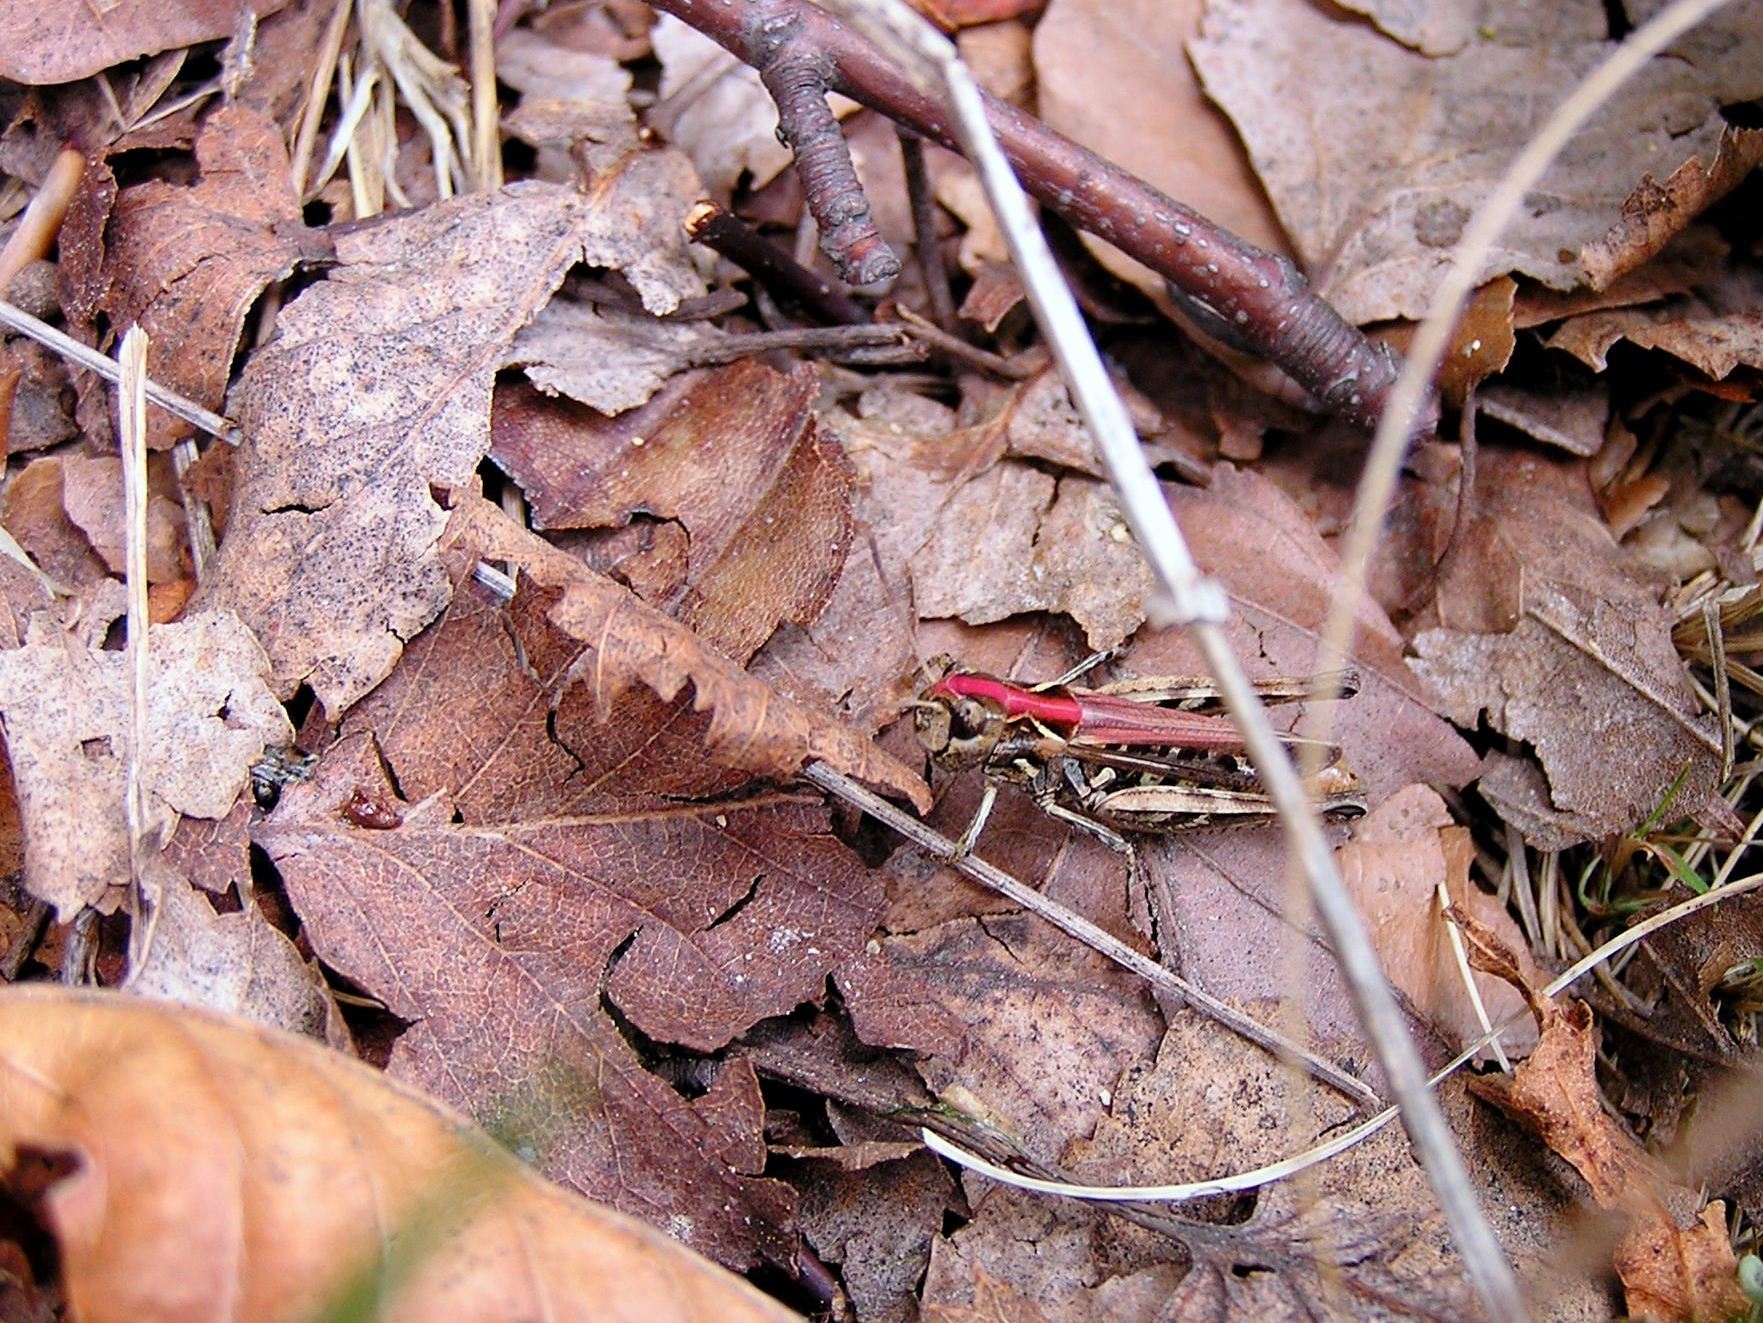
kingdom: Animalia
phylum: Arthropoda
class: Insecta
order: Orthoptera
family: Acrididae
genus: Myrmeleotettix
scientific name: Myrmeleotettix maculatus
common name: Mottled grasshopper
